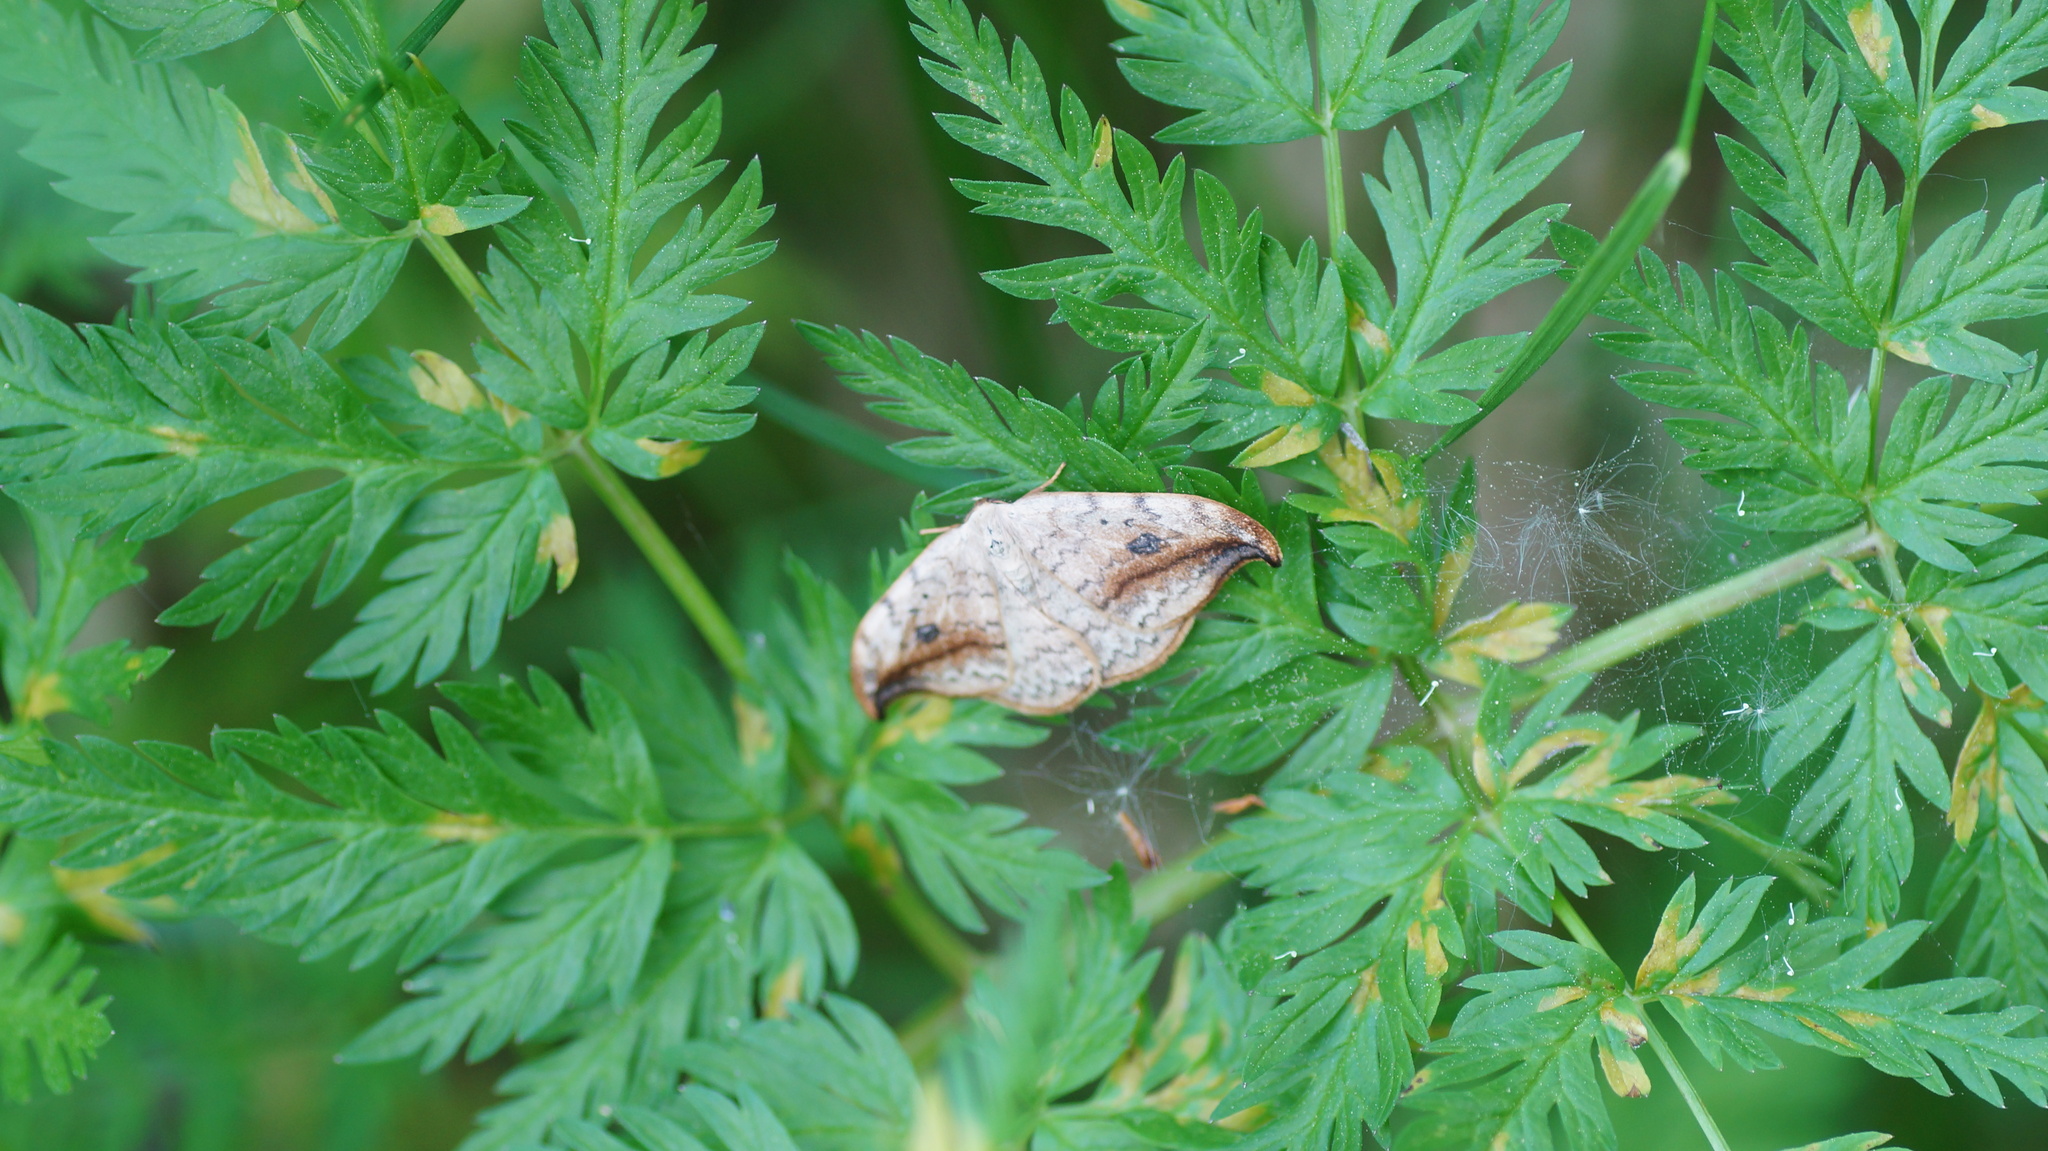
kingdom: Animalia
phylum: Arthropoda
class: Insecta
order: Lepidoptera
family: Drepanidae
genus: Drepana
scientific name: Drepana falcataria
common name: Pebble hook-tip
